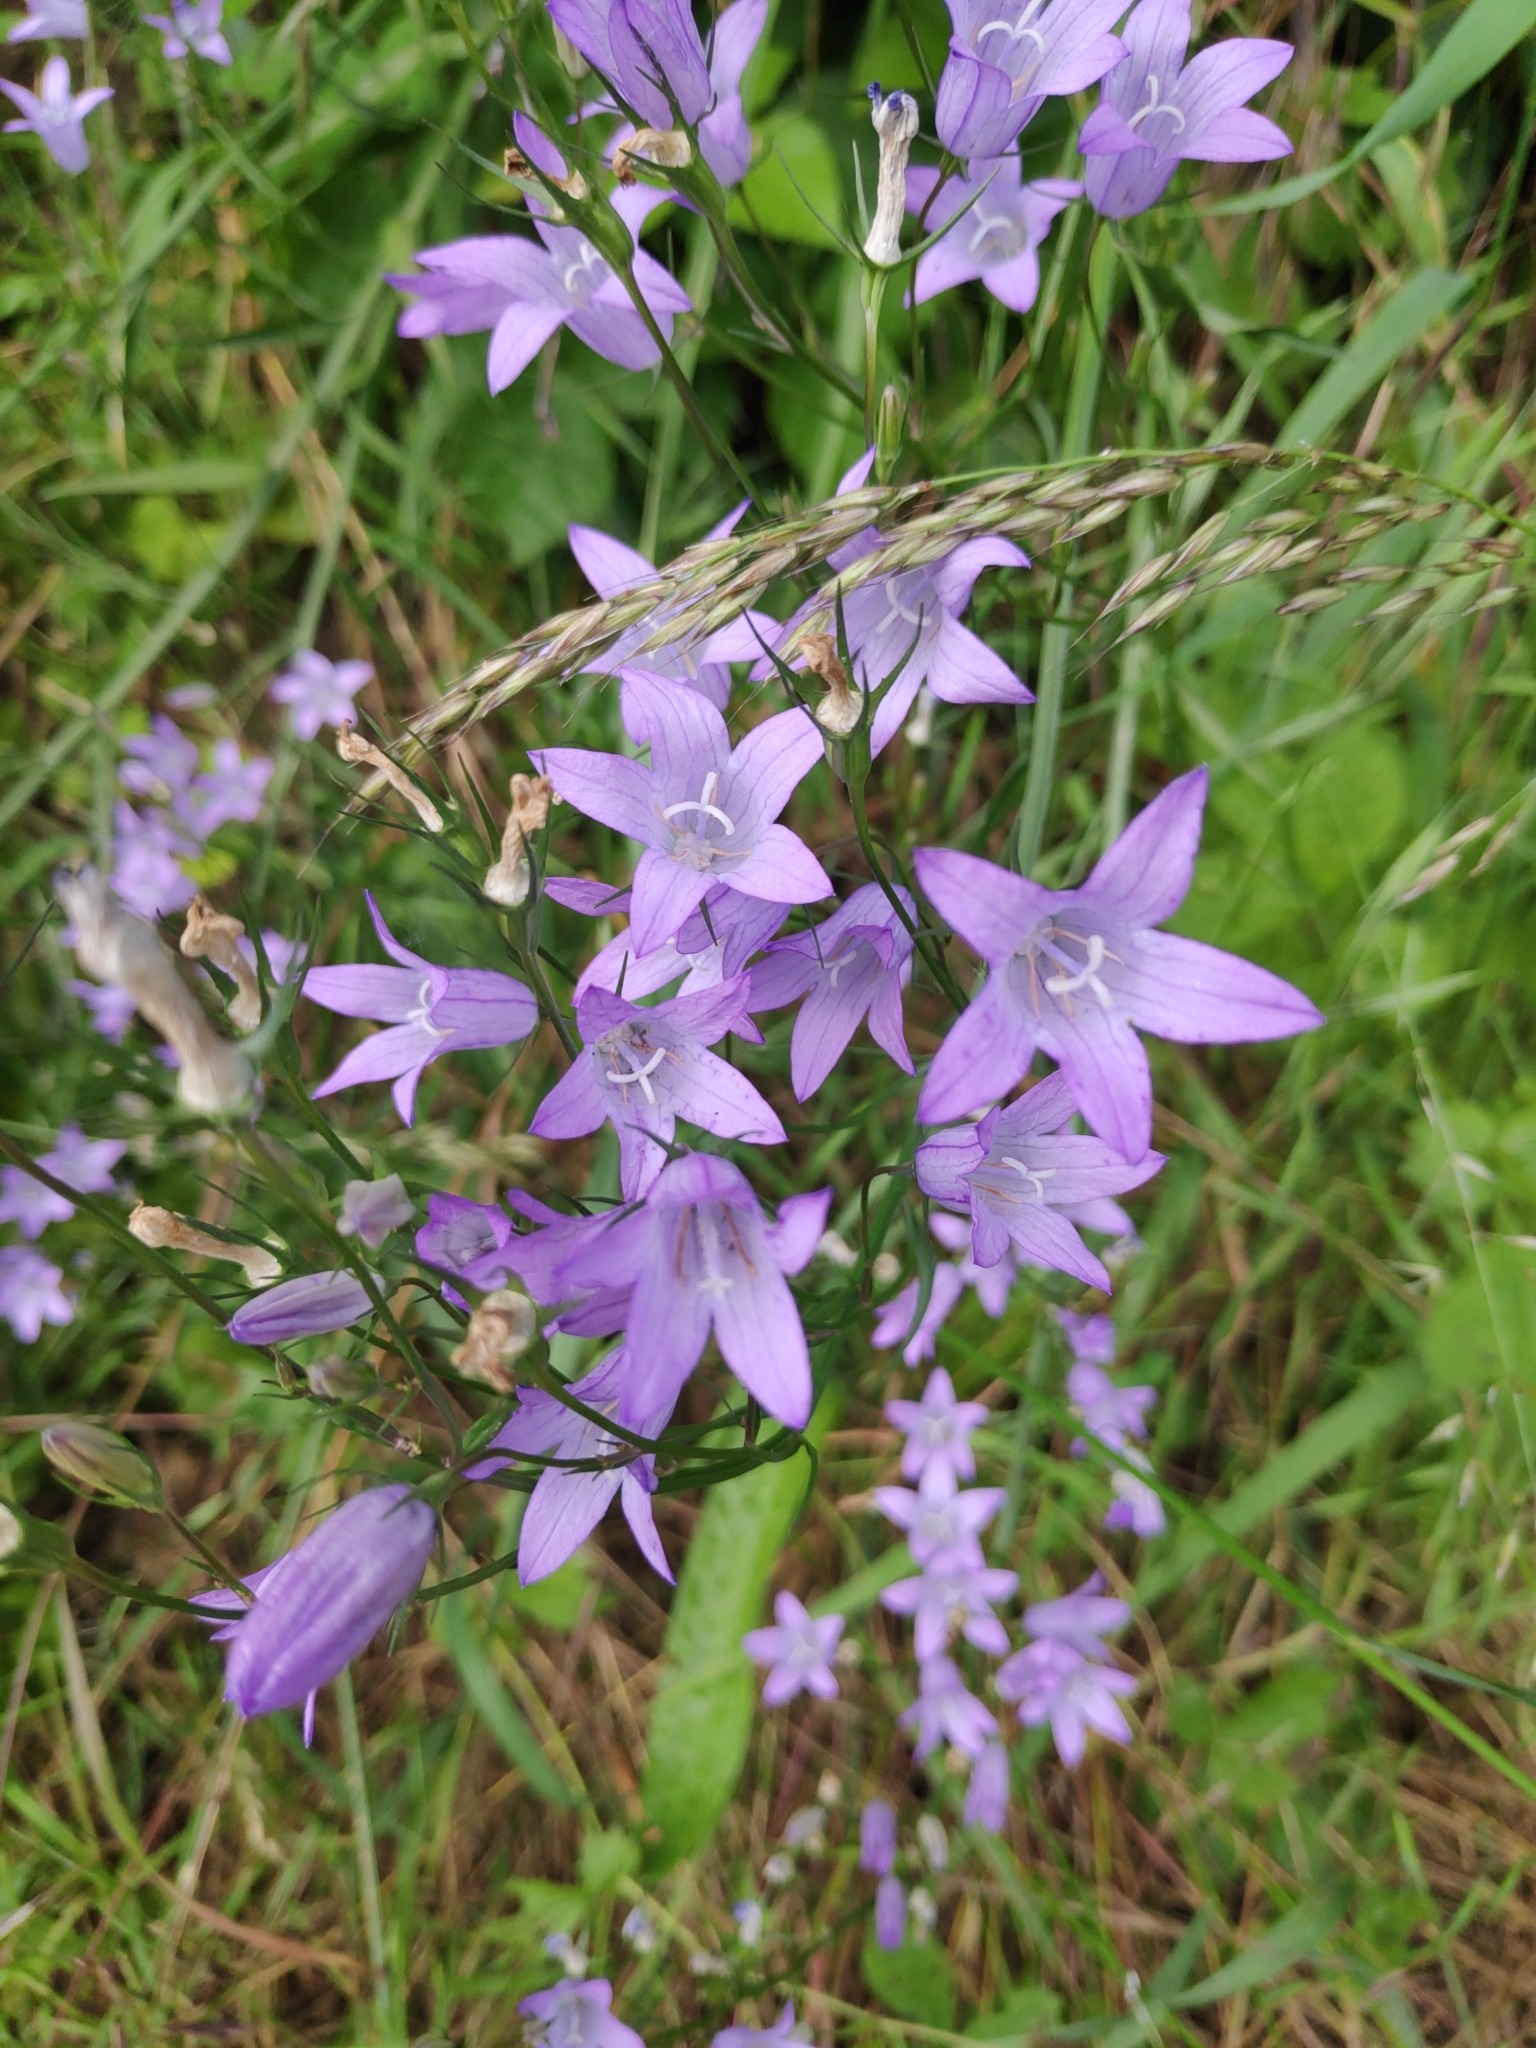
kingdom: Plantae
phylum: Tracheophyta
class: Magnoliopsida
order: Asterales
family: Campanulaceae
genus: Campanula
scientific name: Campanula rapunculus
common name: Rampion bellflower
